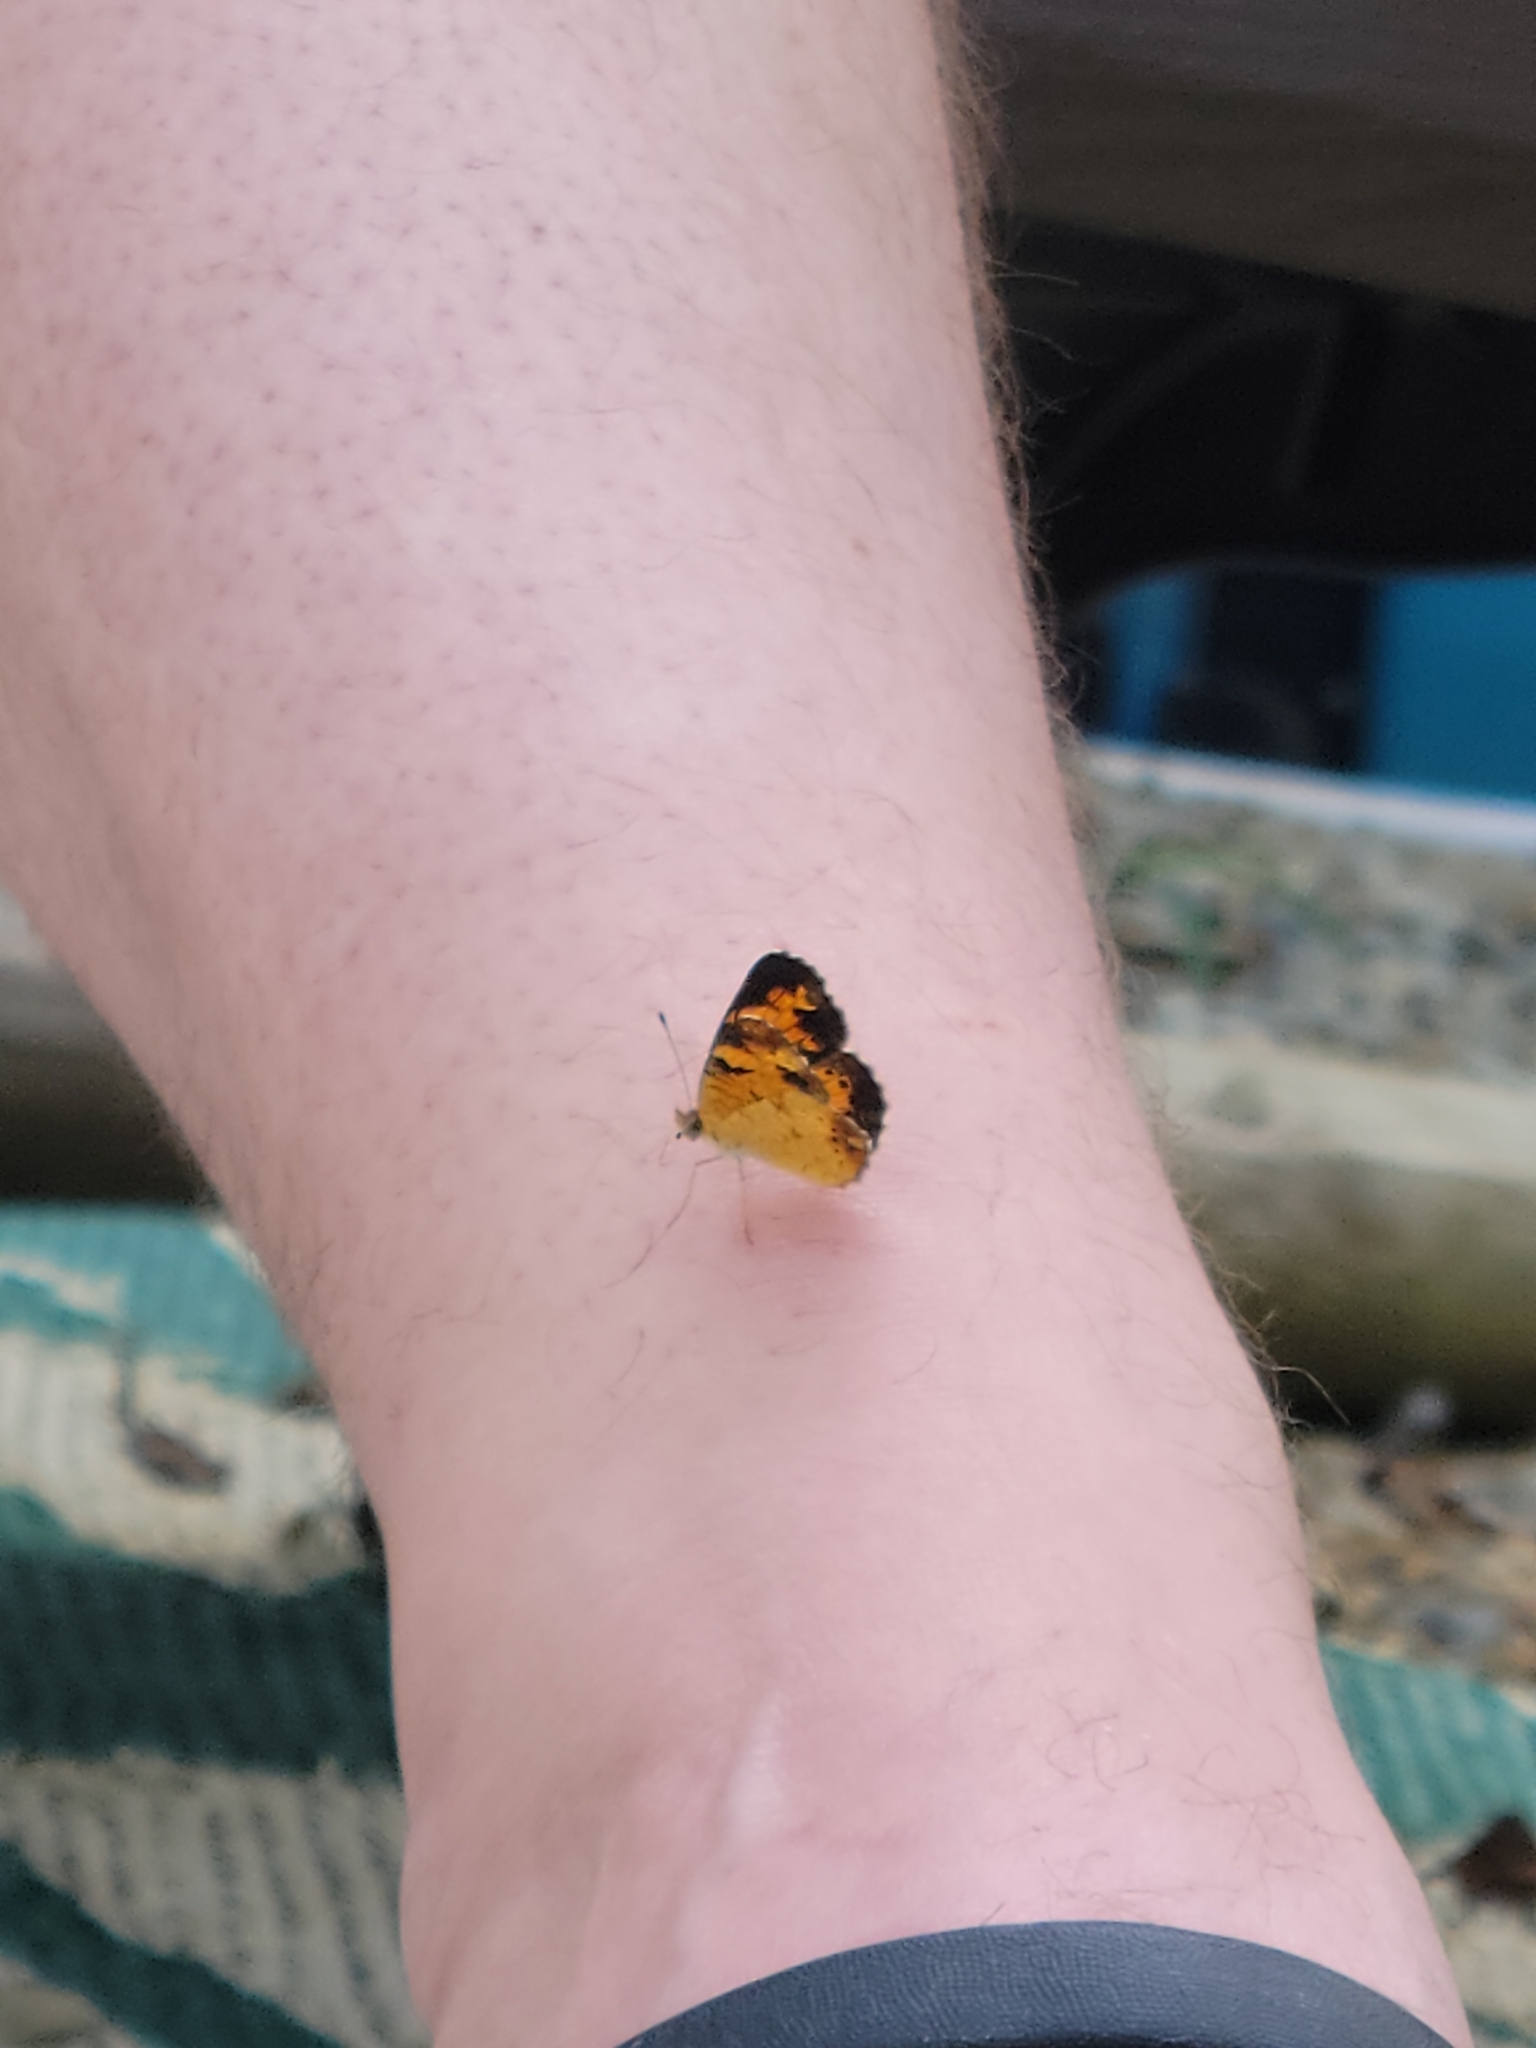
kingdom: Animalia
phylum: Arthropoda
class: Insecta
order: Lepidoptera
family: Nymphalidae
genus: Phyciodes
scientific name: Phyciodes tharos
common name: Pearl crescent
